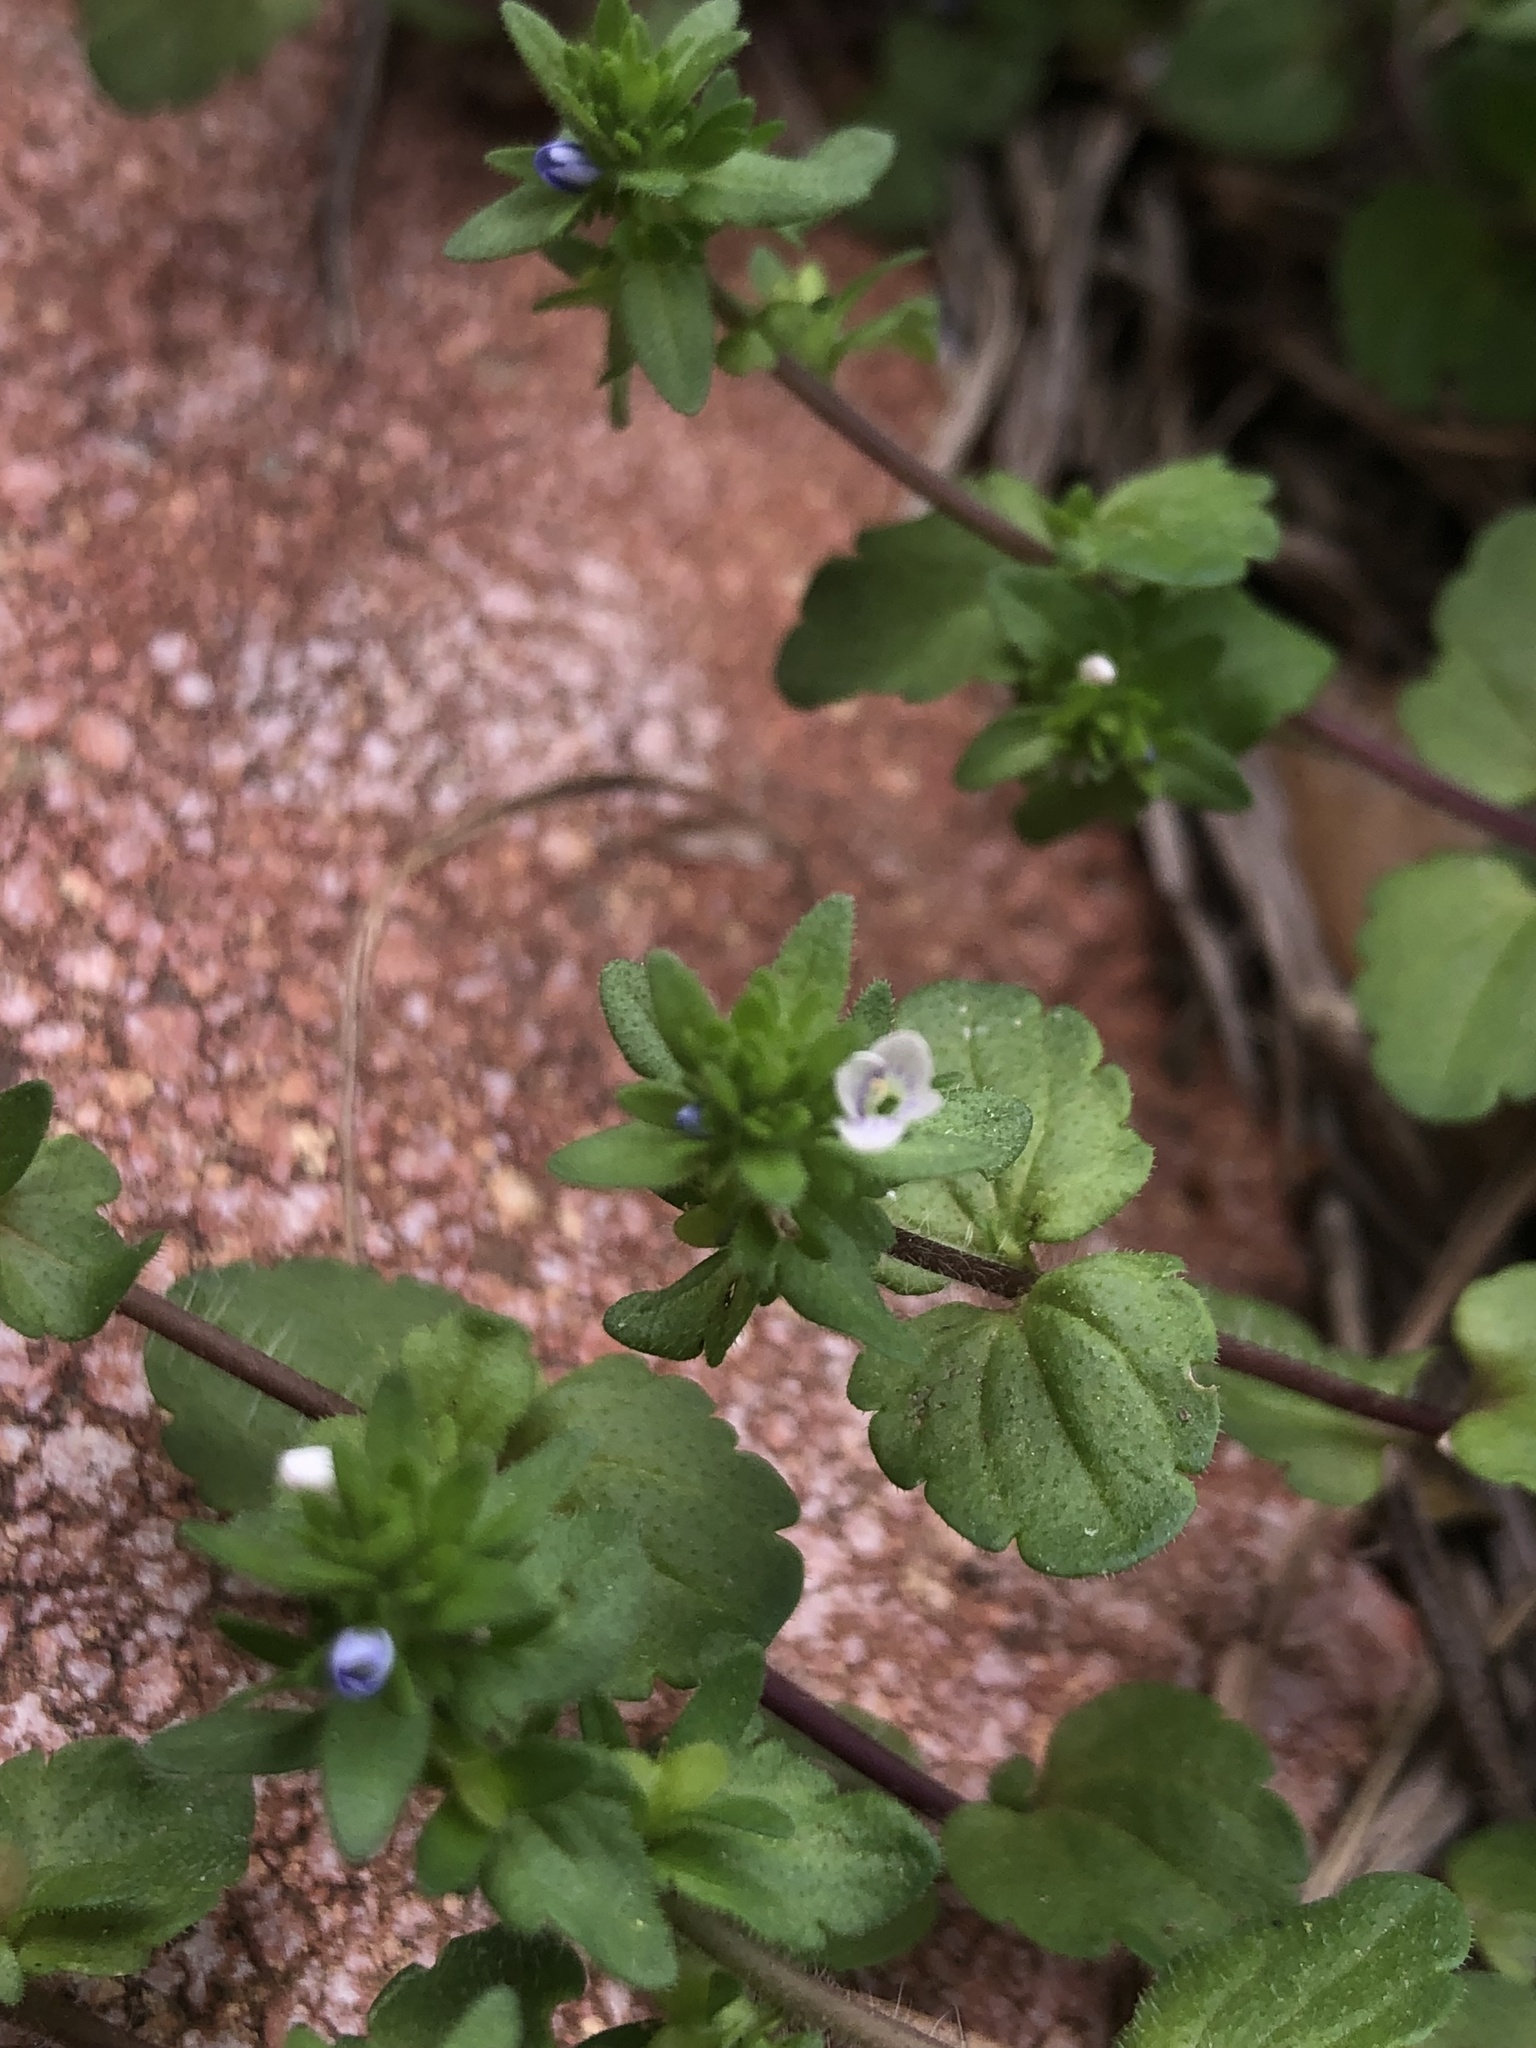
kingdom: Plantae
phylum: Tracheophyta
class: Magnoliopsida
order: Lamiales
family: Plantaginaceae
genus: Veronica
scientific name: Veronica arvensis
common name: Corn speedwell
